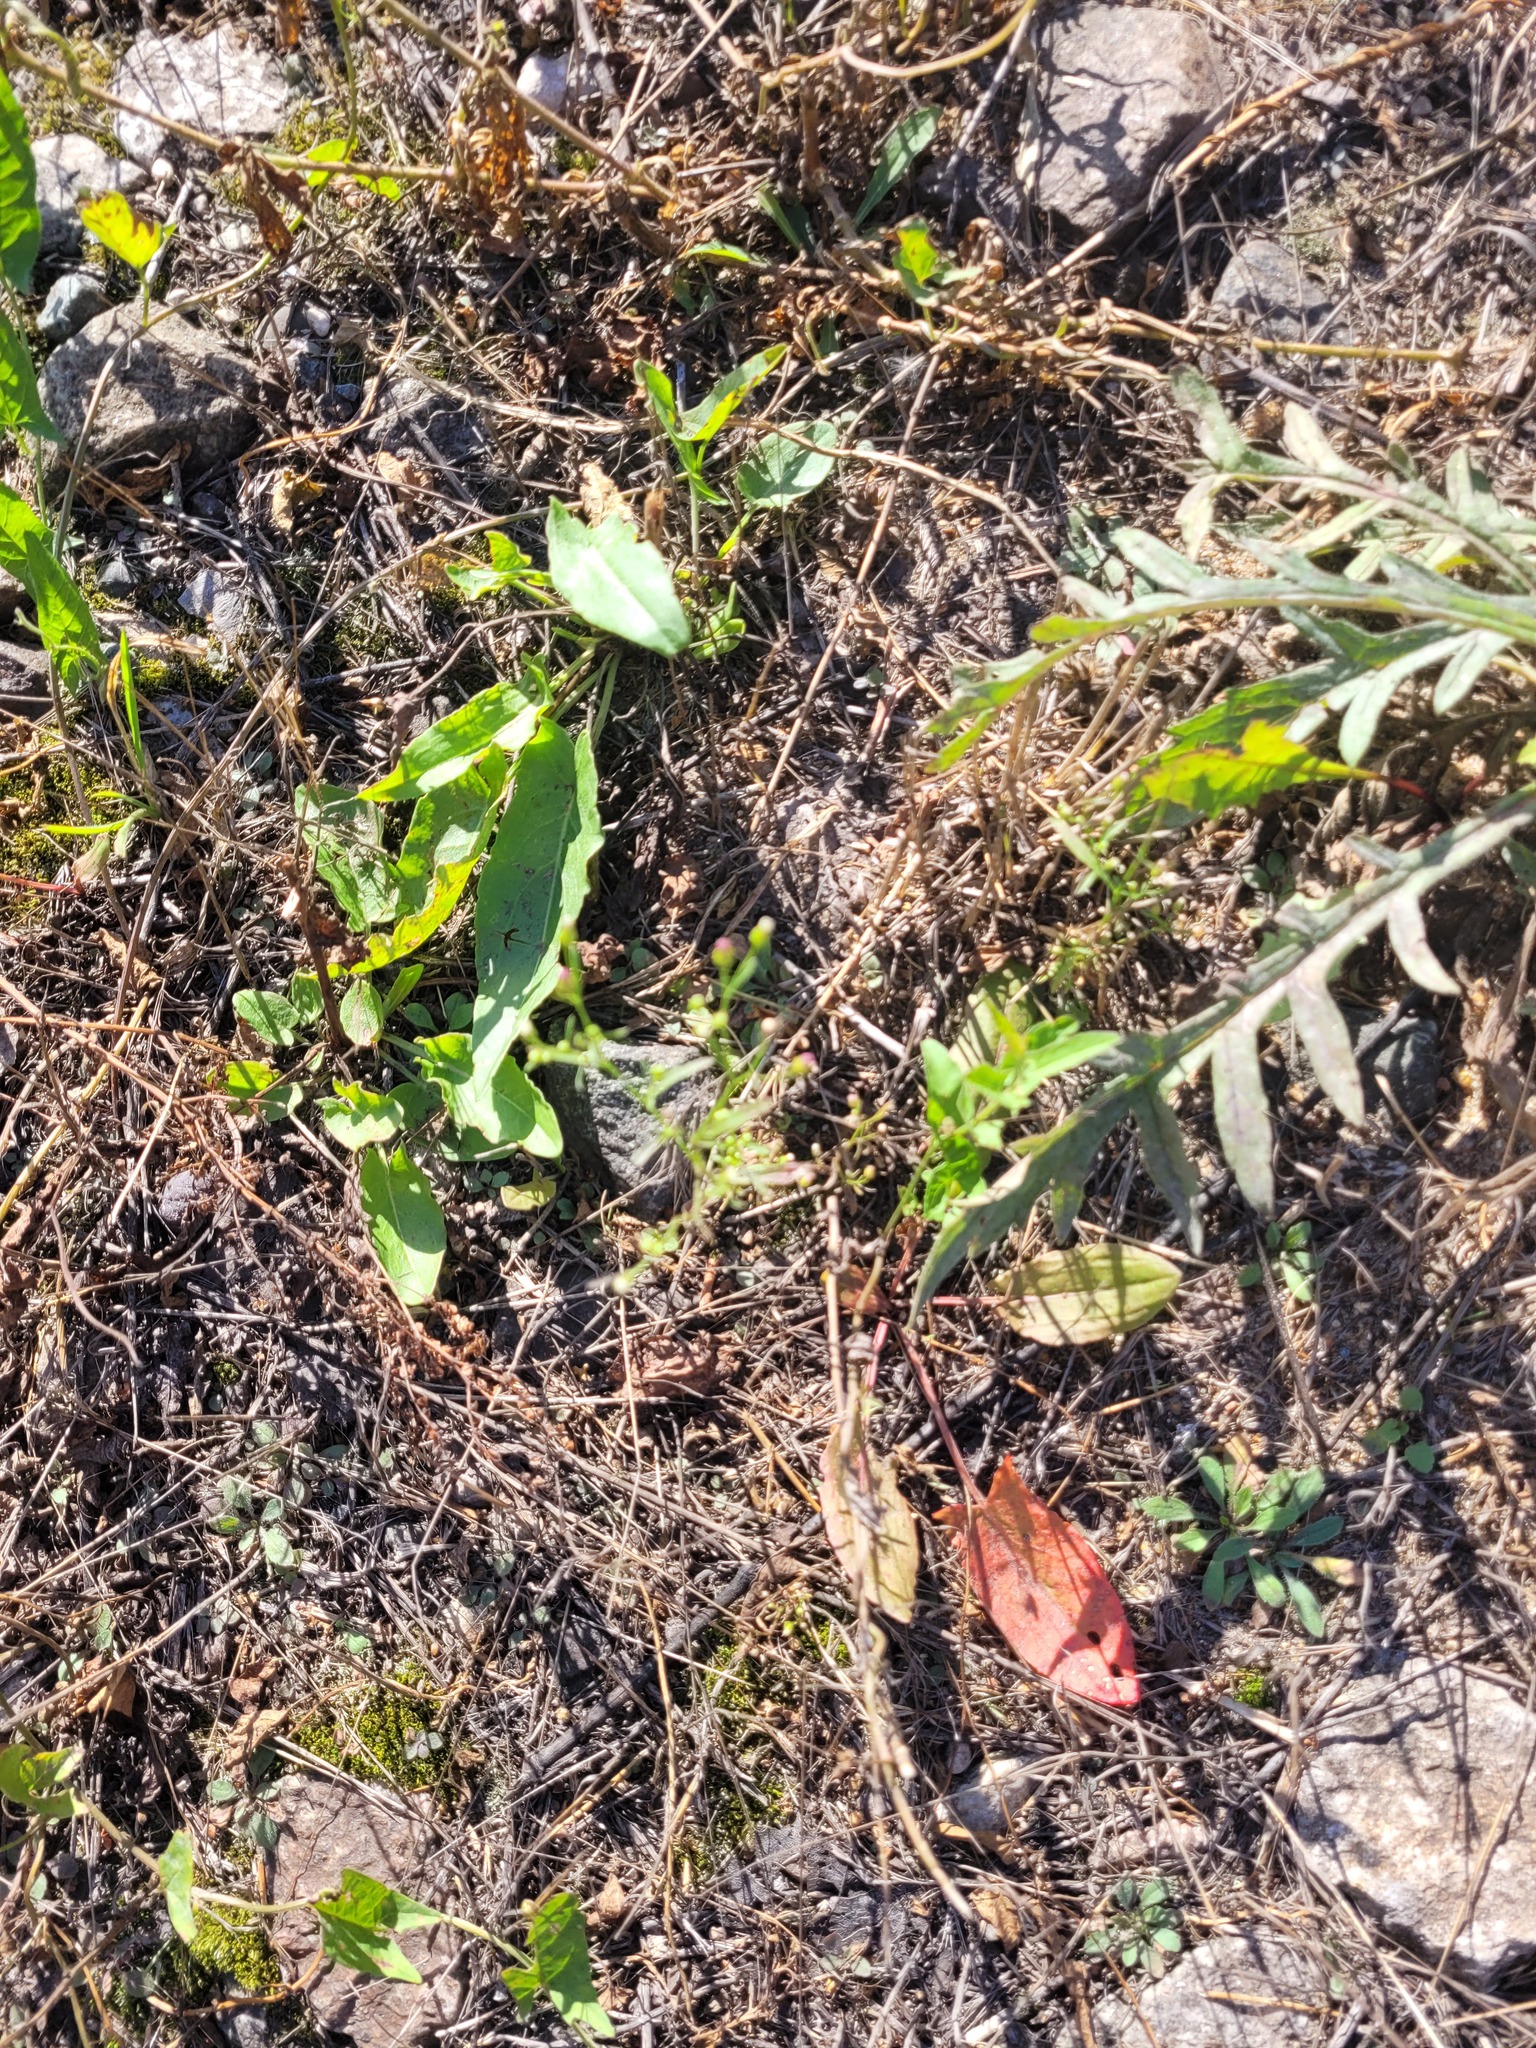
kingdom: Plantae
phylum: Tracheophyta
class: Magnoliopsida
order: Asterales
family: Asteraceae
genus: Erigeron
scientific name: Erigeron canadensis
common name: Canadian fleabane
